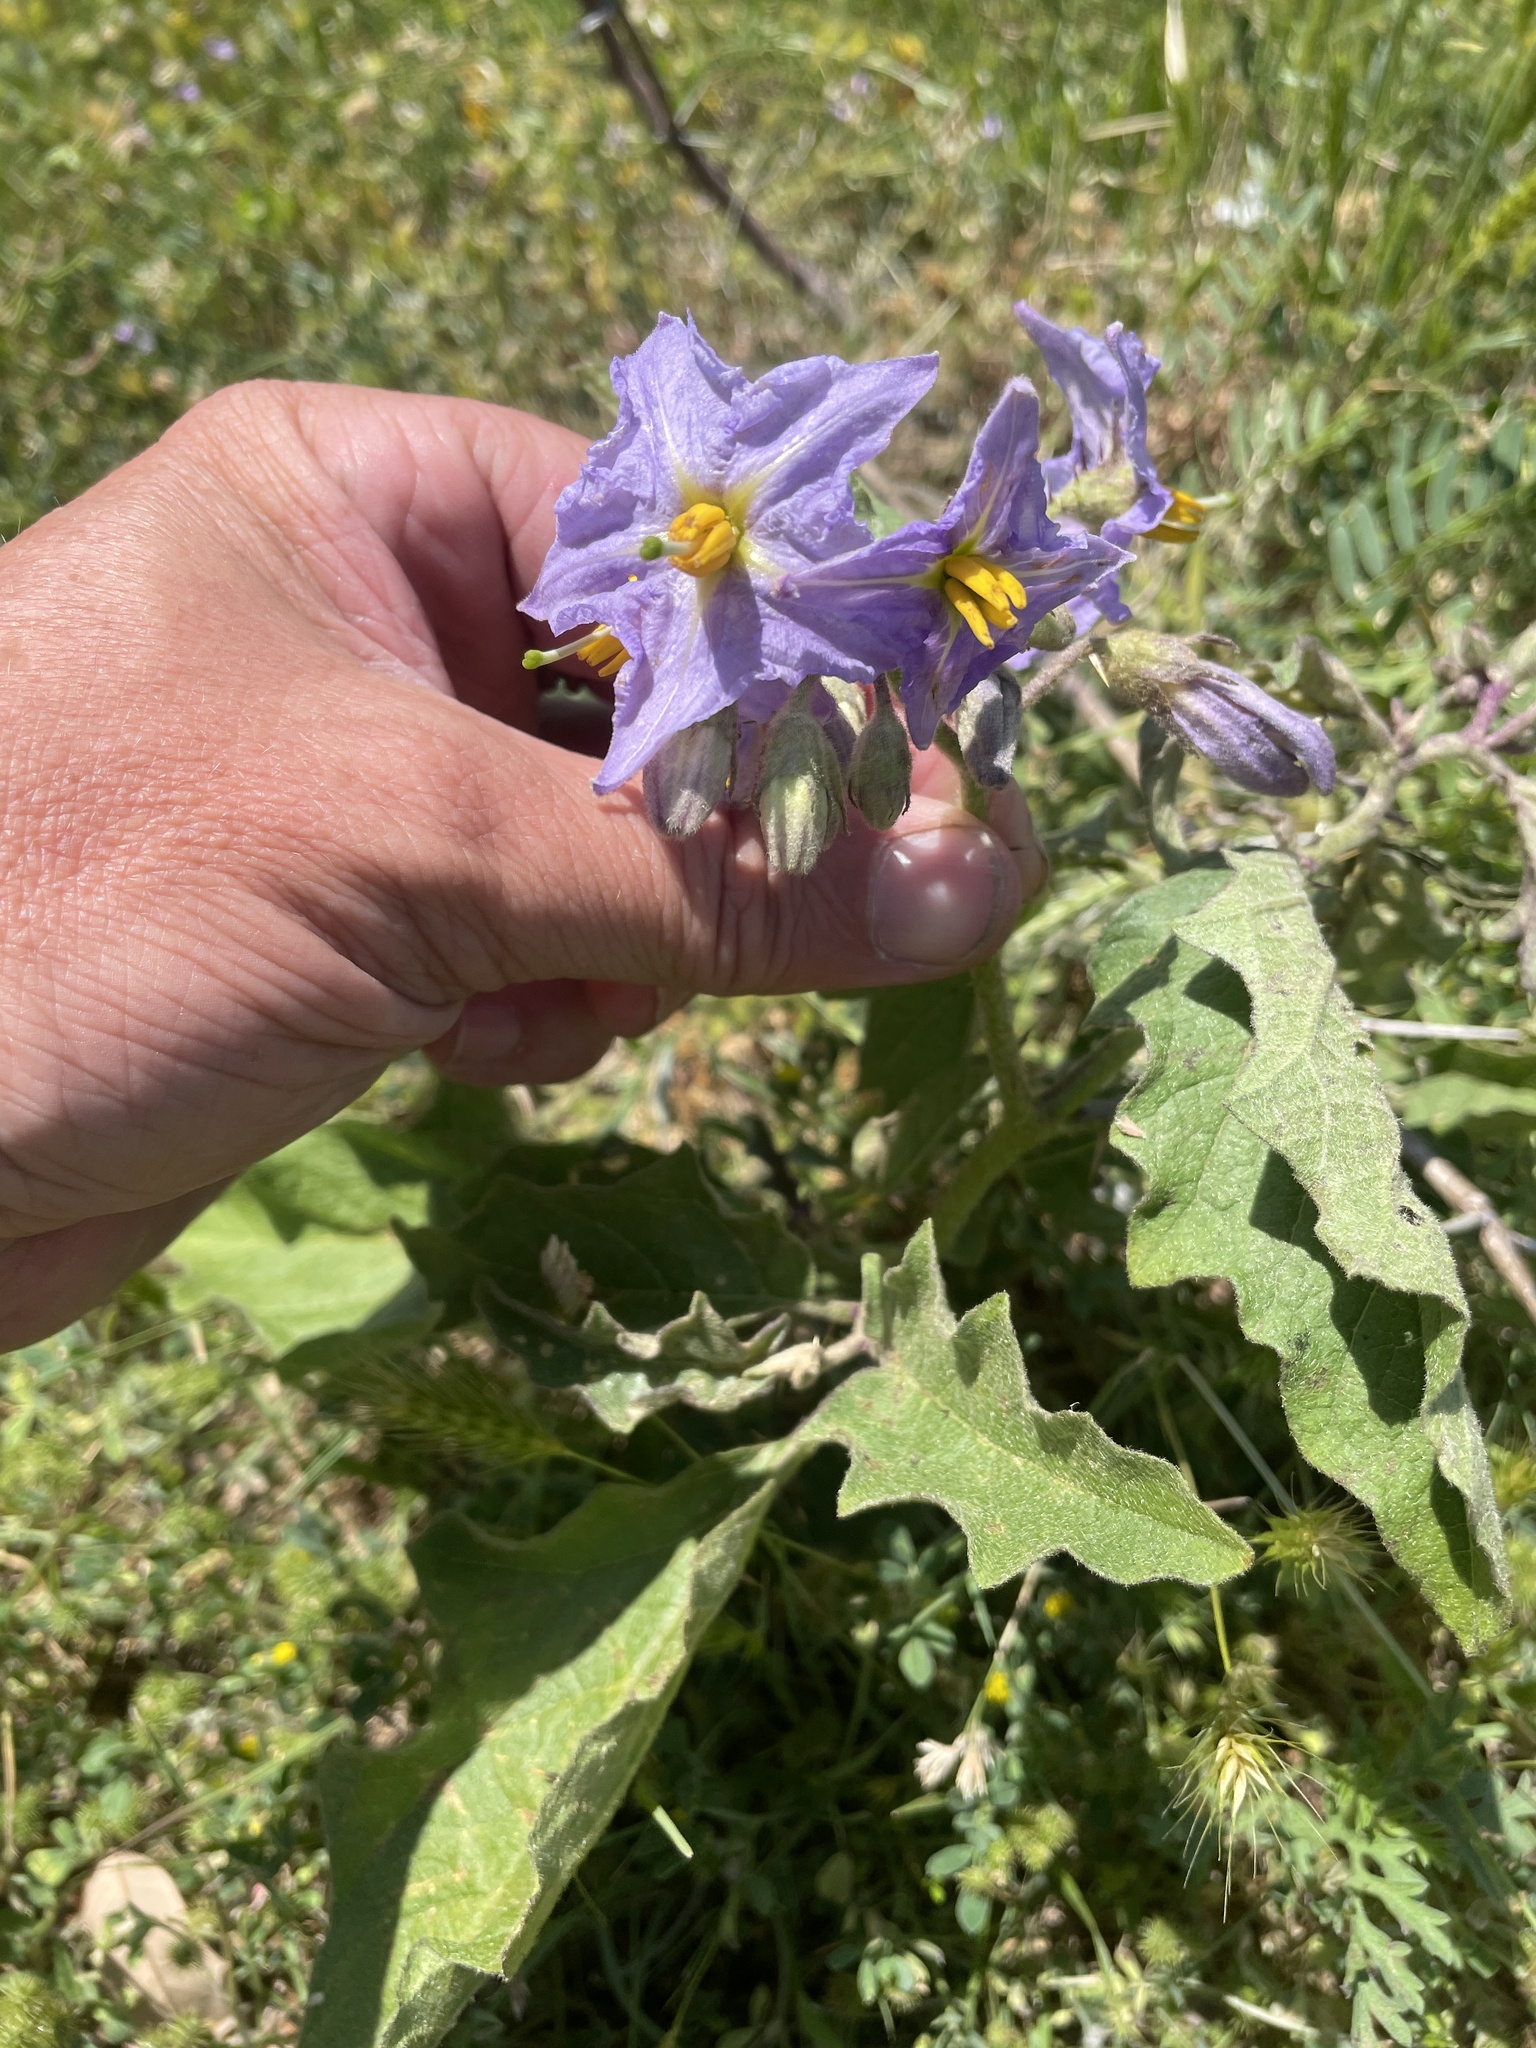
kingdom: Plantae
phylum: Tracheophyta
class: Magnoliopsida
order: Solanales
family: Solanaceae
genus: Solanum
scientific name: Solanum dimidiatum
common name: Carolina horse-nettle
